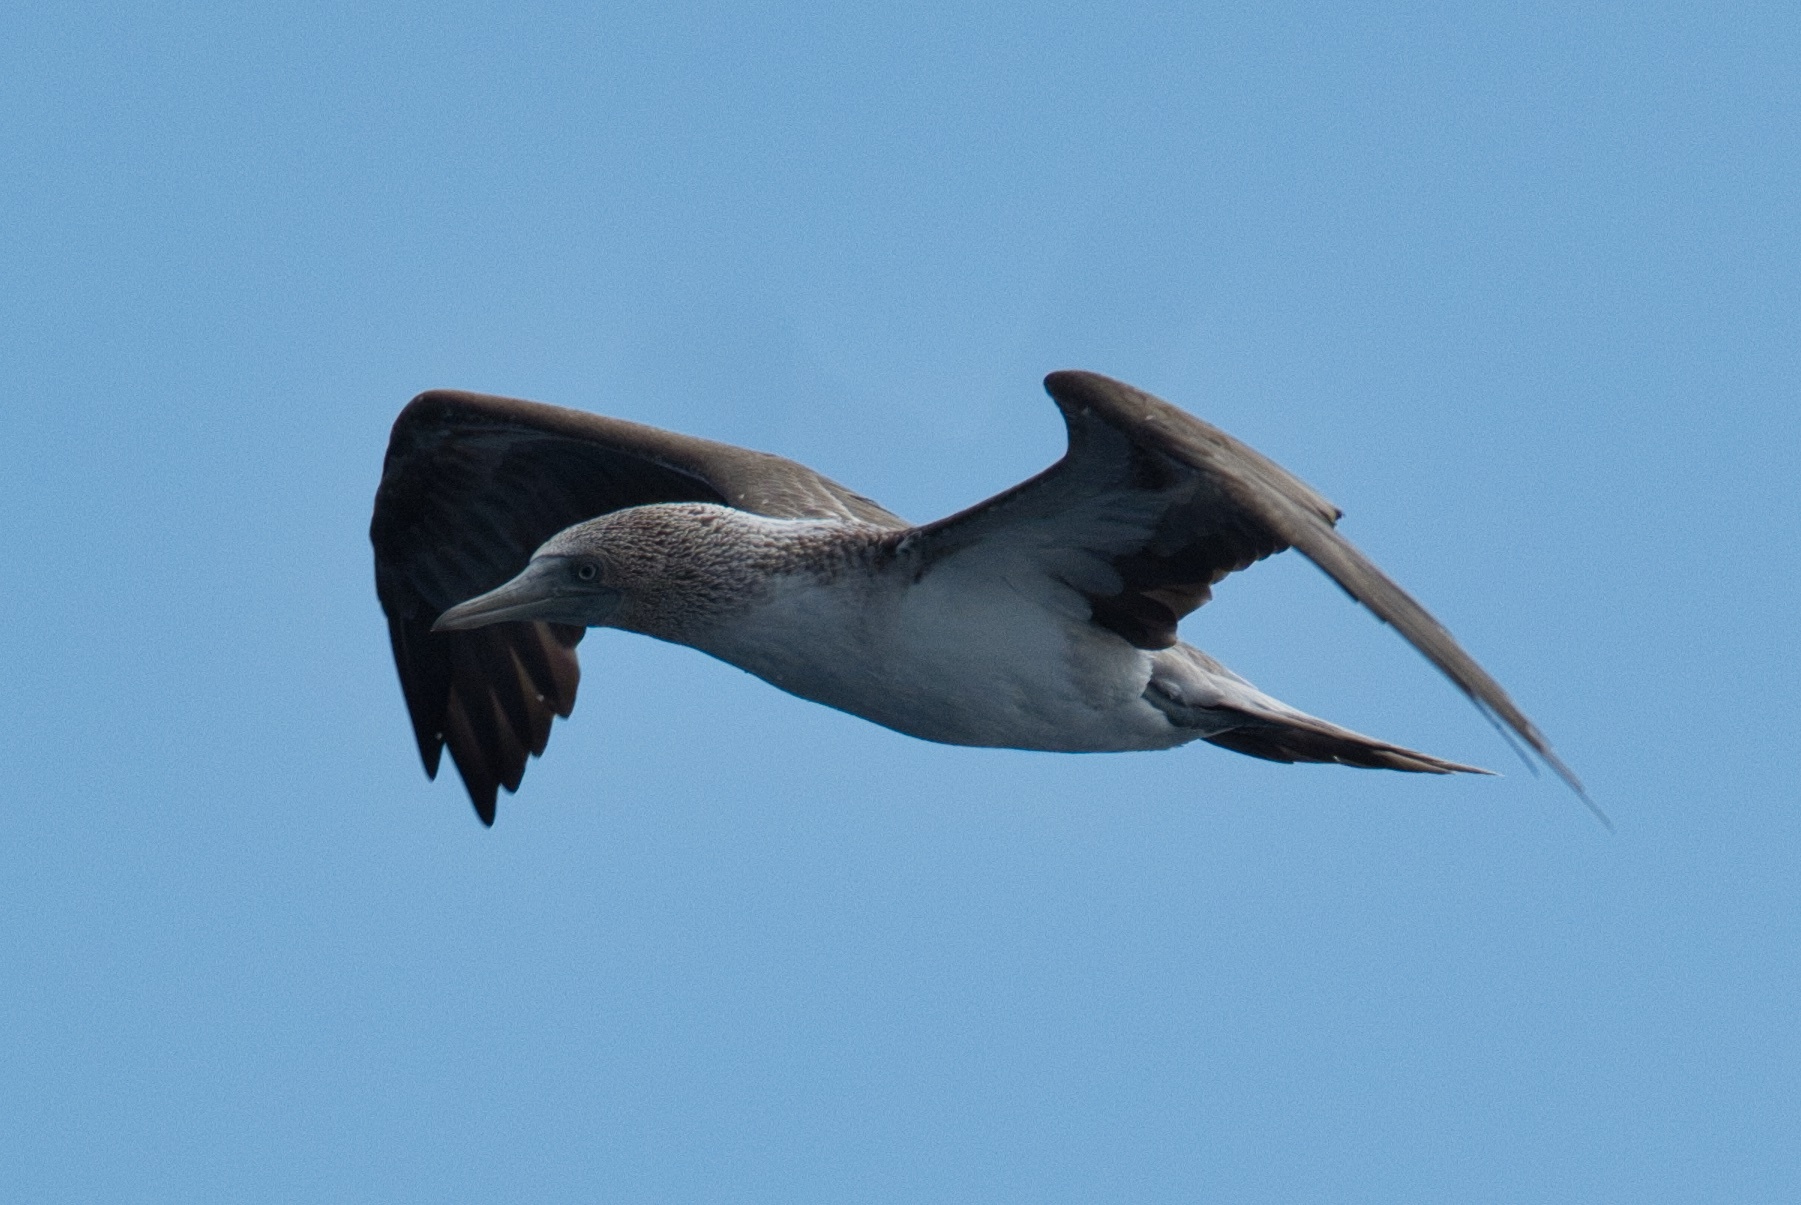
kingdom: Animalia
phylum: Chordata
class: Aves
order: Suliformes
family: Sulidae
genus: Sula
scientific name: Sula nebouxii
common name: Blue-footed booby
